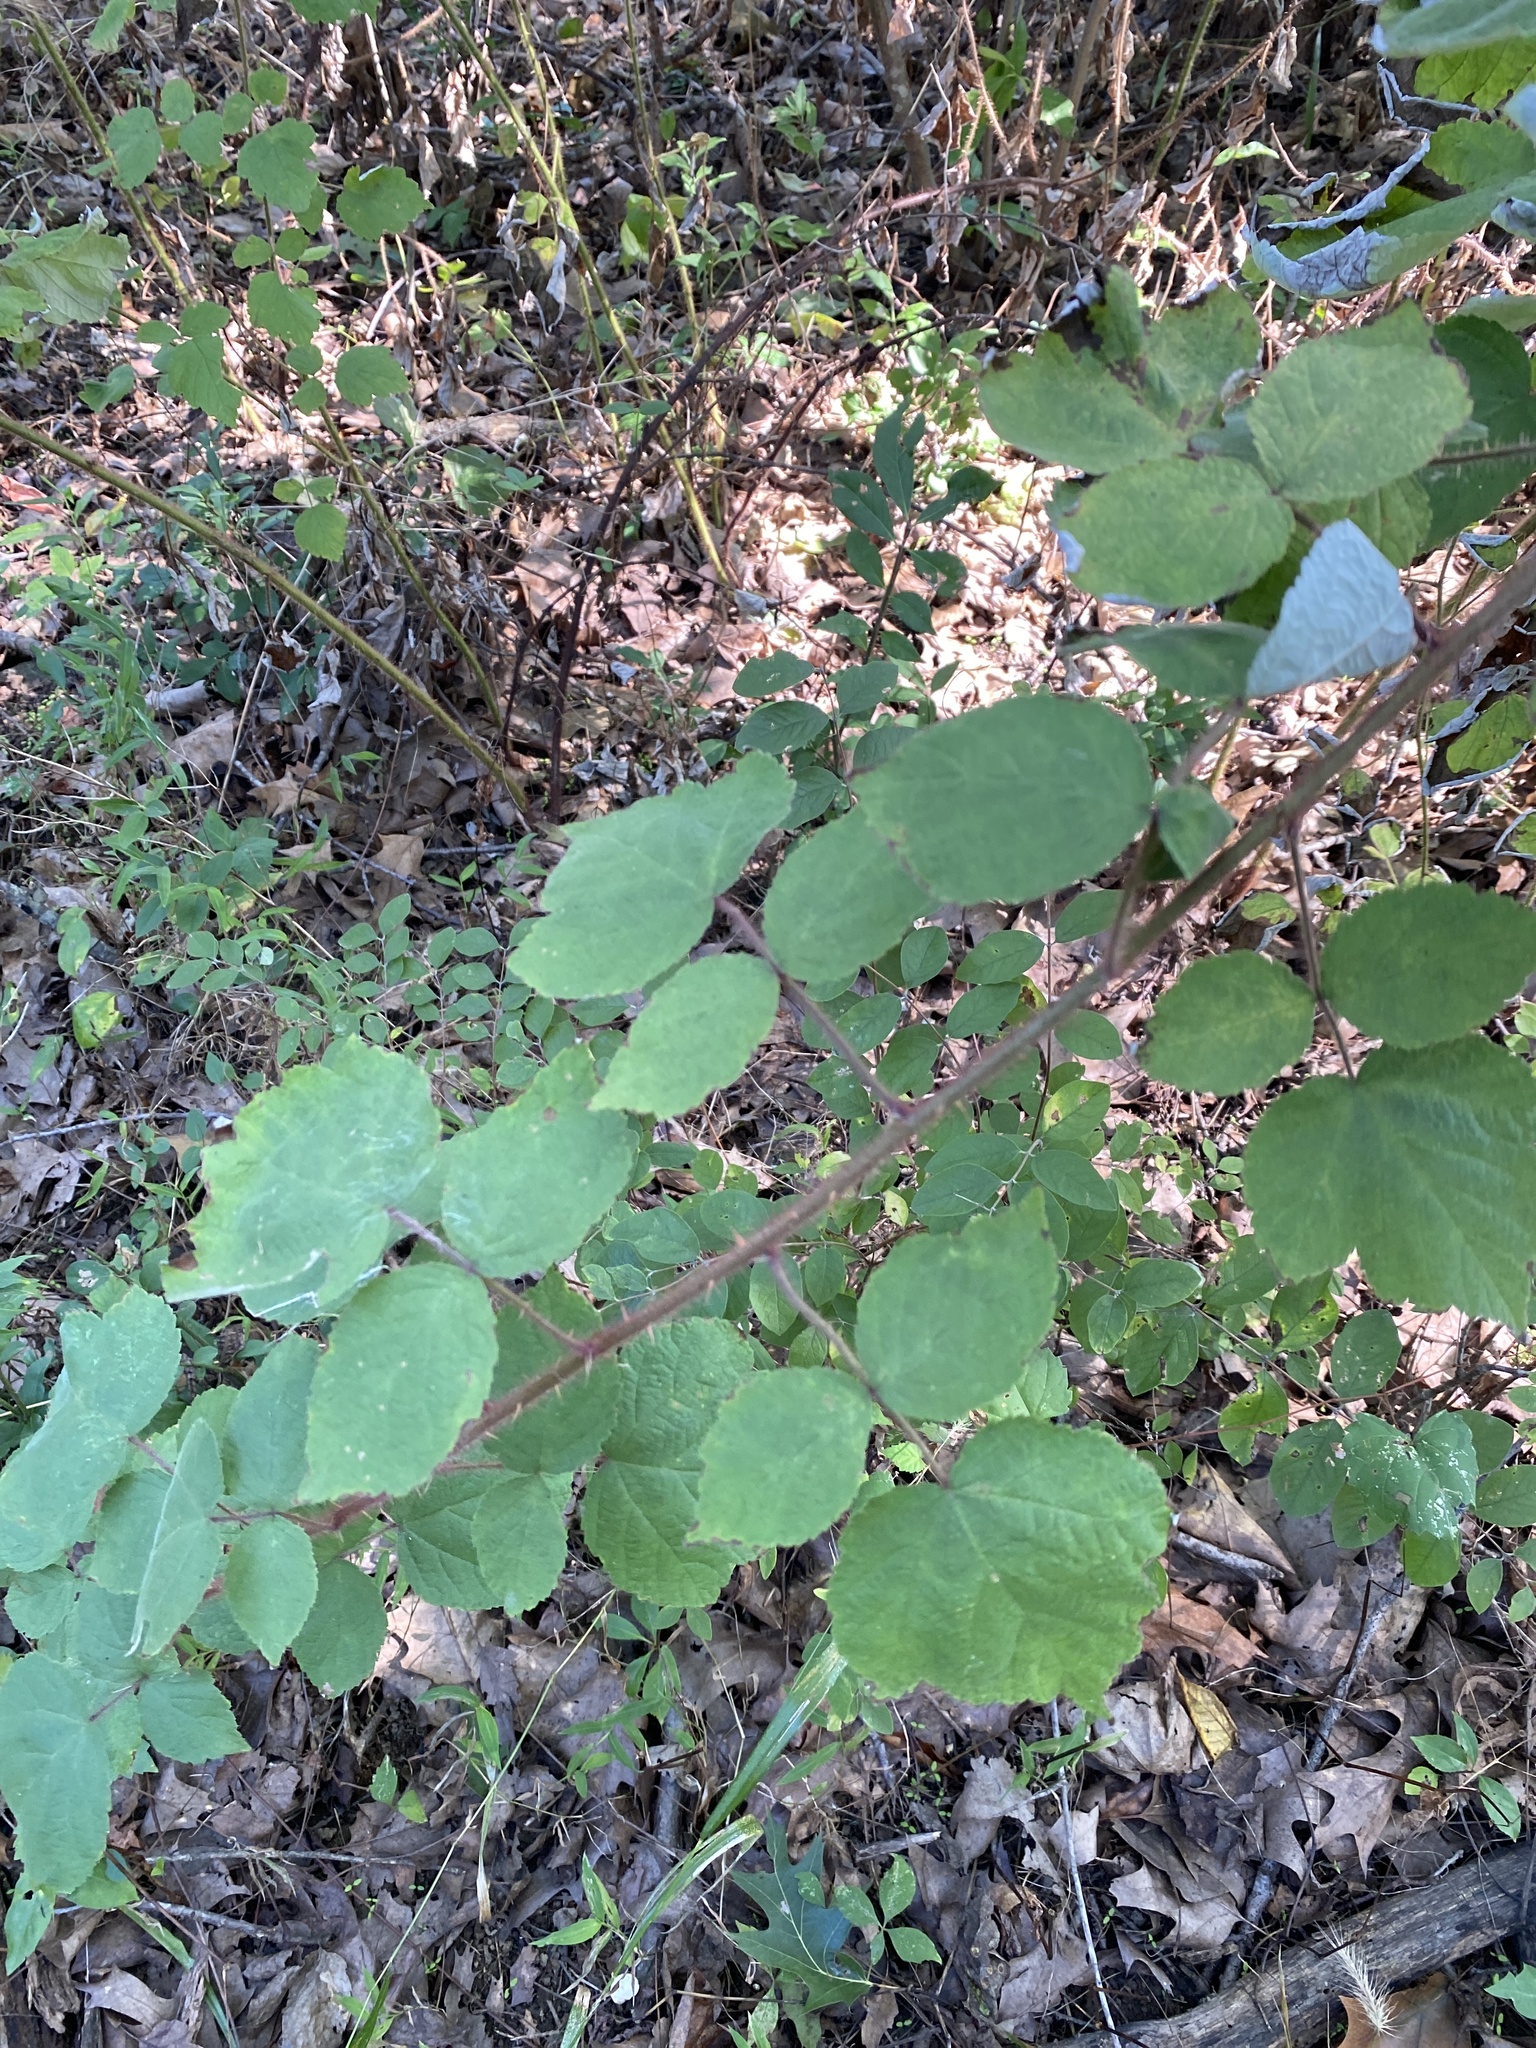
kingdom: Plantae
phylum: Tracheophyta
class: Magnoliopsida
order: Rosales
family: Rosaceae
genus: Rubus
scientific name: Rubus phoenicolasius
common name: Japanese wineberry
